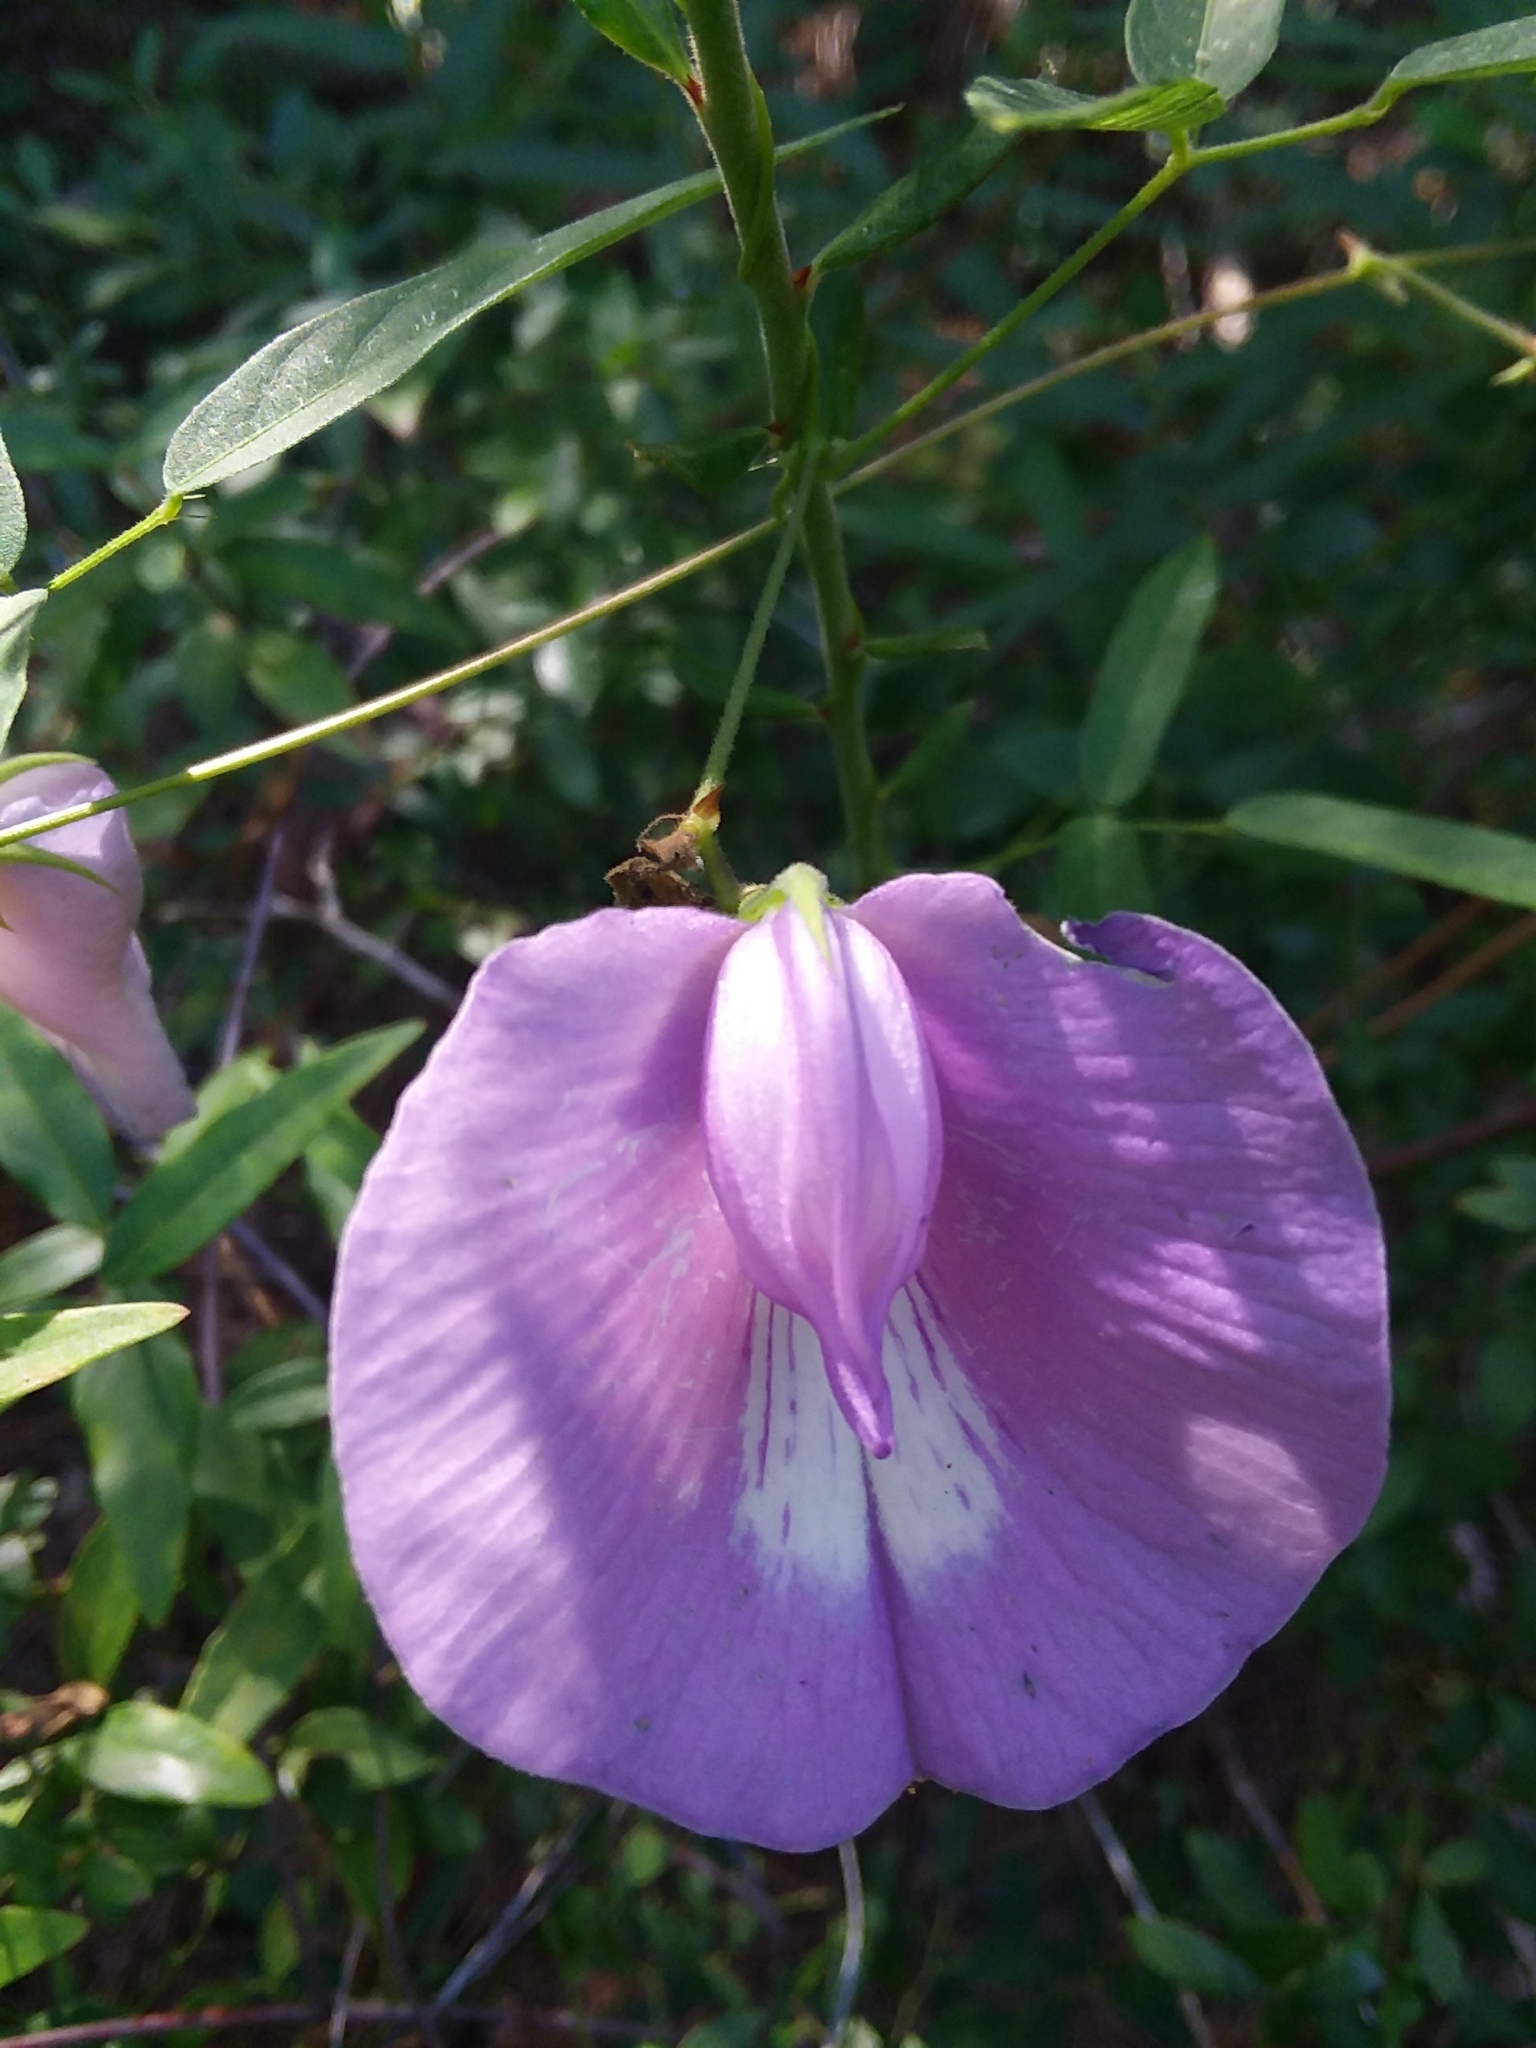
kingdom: Plantae
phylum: Tracheophyta
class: Magnoliopsida
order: Fabales
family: Fabaceae
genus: Centrosema
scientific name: Centrosema virginianum
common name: Butterfly-pea
